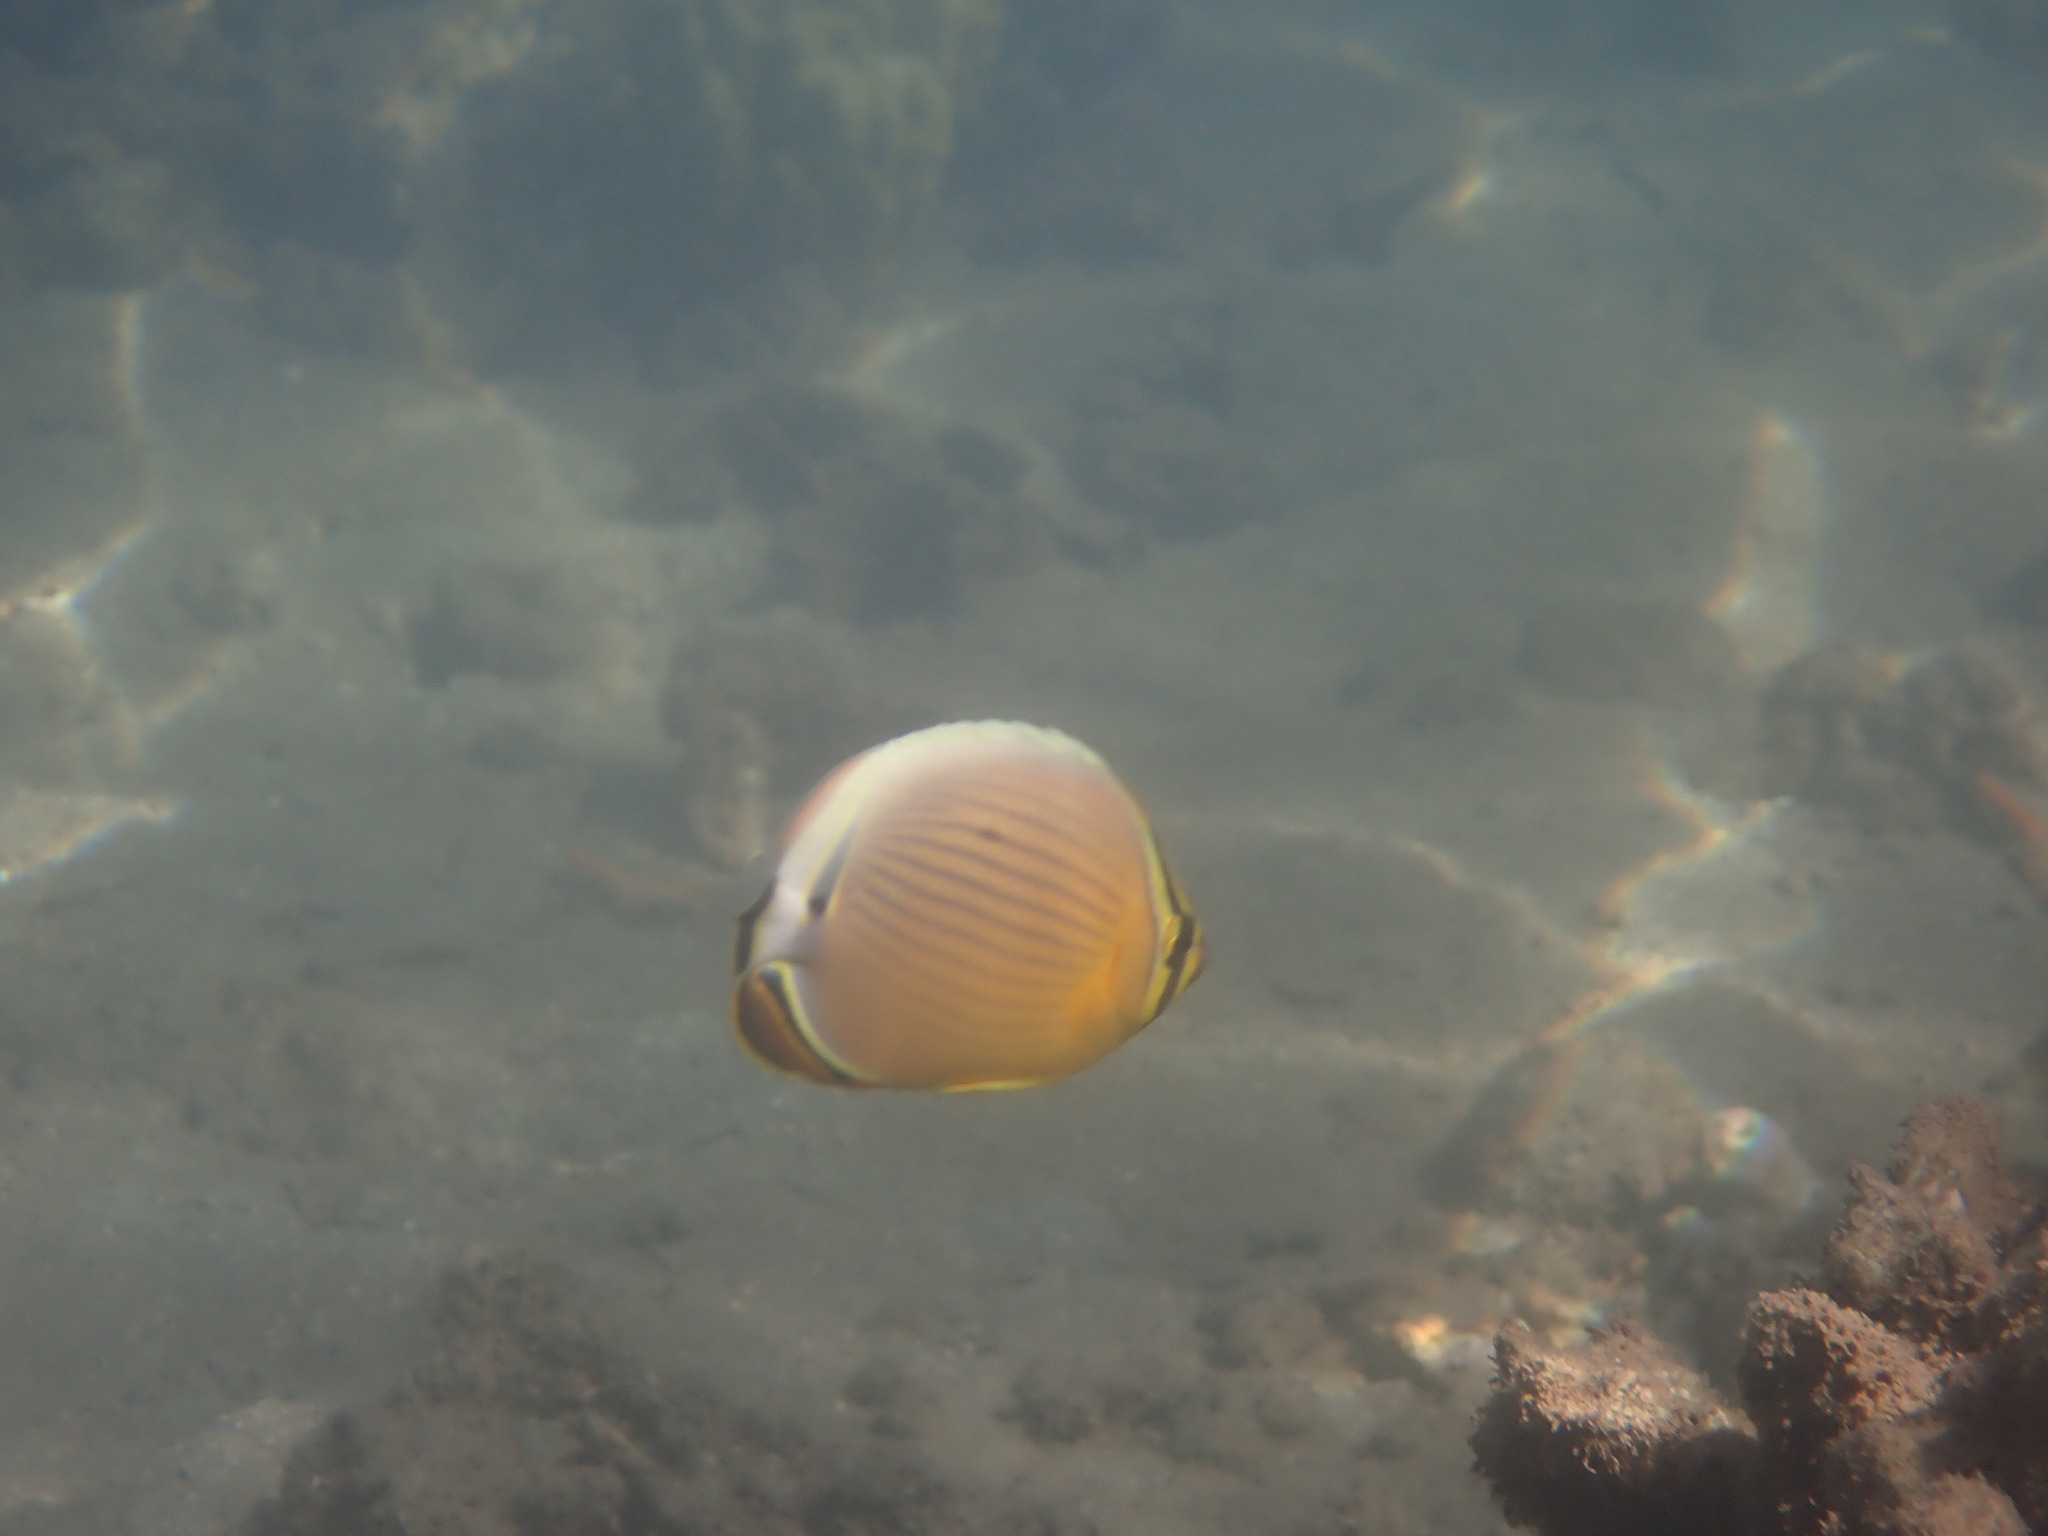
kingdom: Animalia
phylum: Chordata
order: Perciformes
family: Chaetodontidae
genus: Chaetodon
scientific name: Chaetodon lunulatus
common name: Redfin butterflyfish
